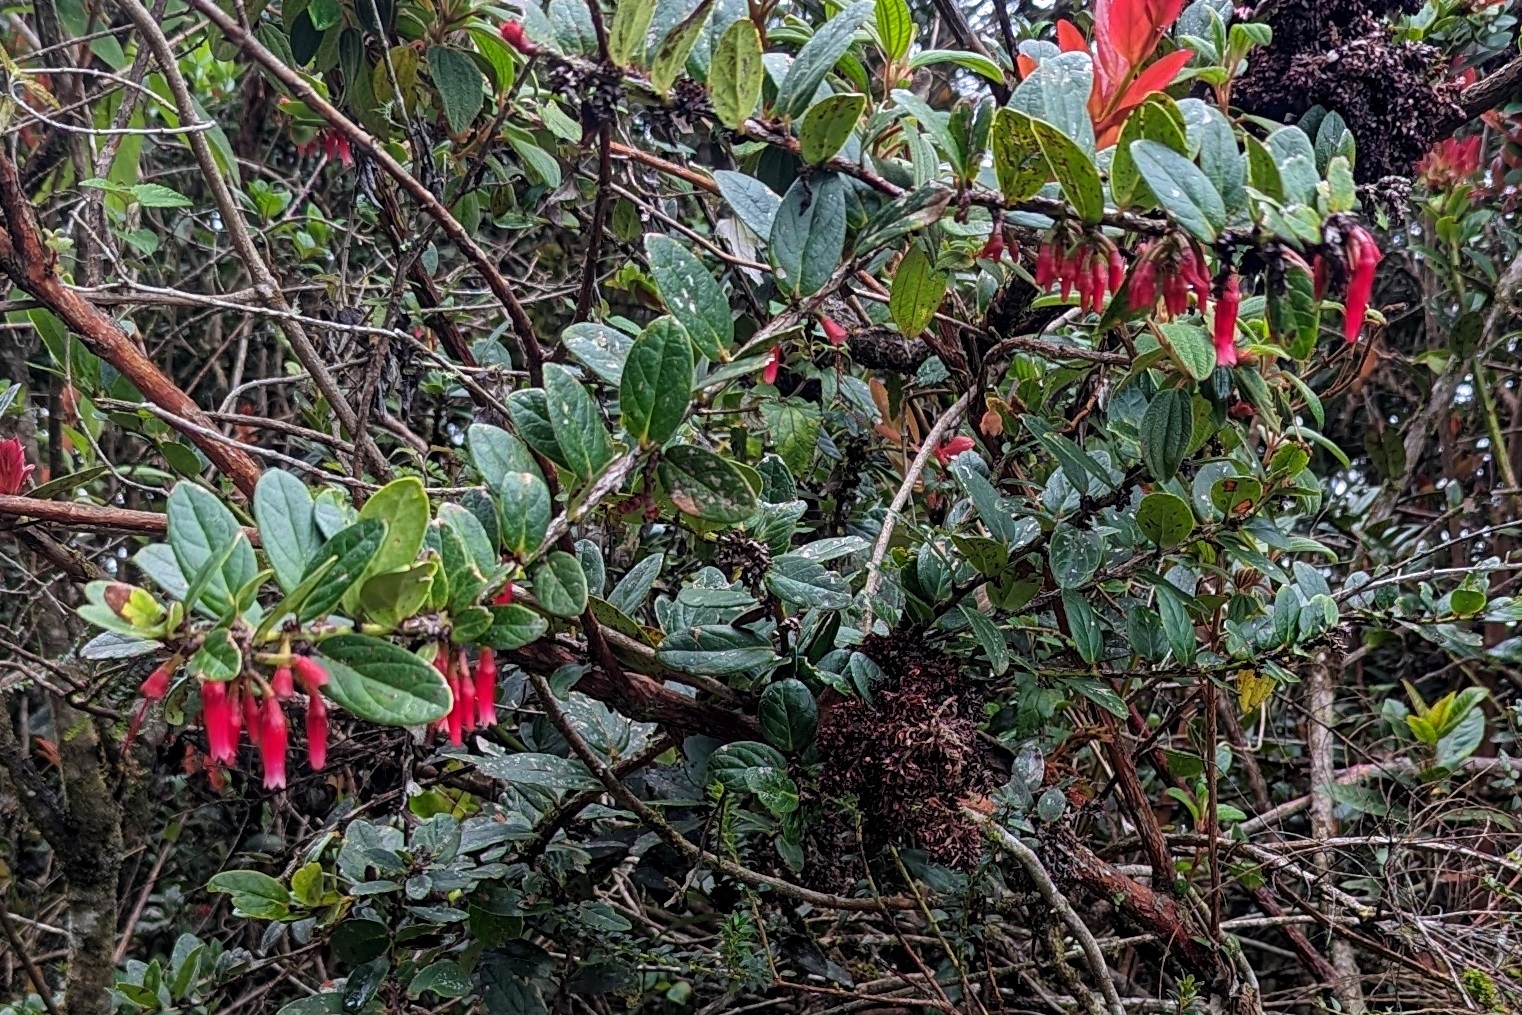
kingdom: Plantae
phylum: Tracheophyta
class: Magnoliopsida
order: Ericales
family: Ericaceae
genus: Macleania
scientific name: Macleania rupestris
